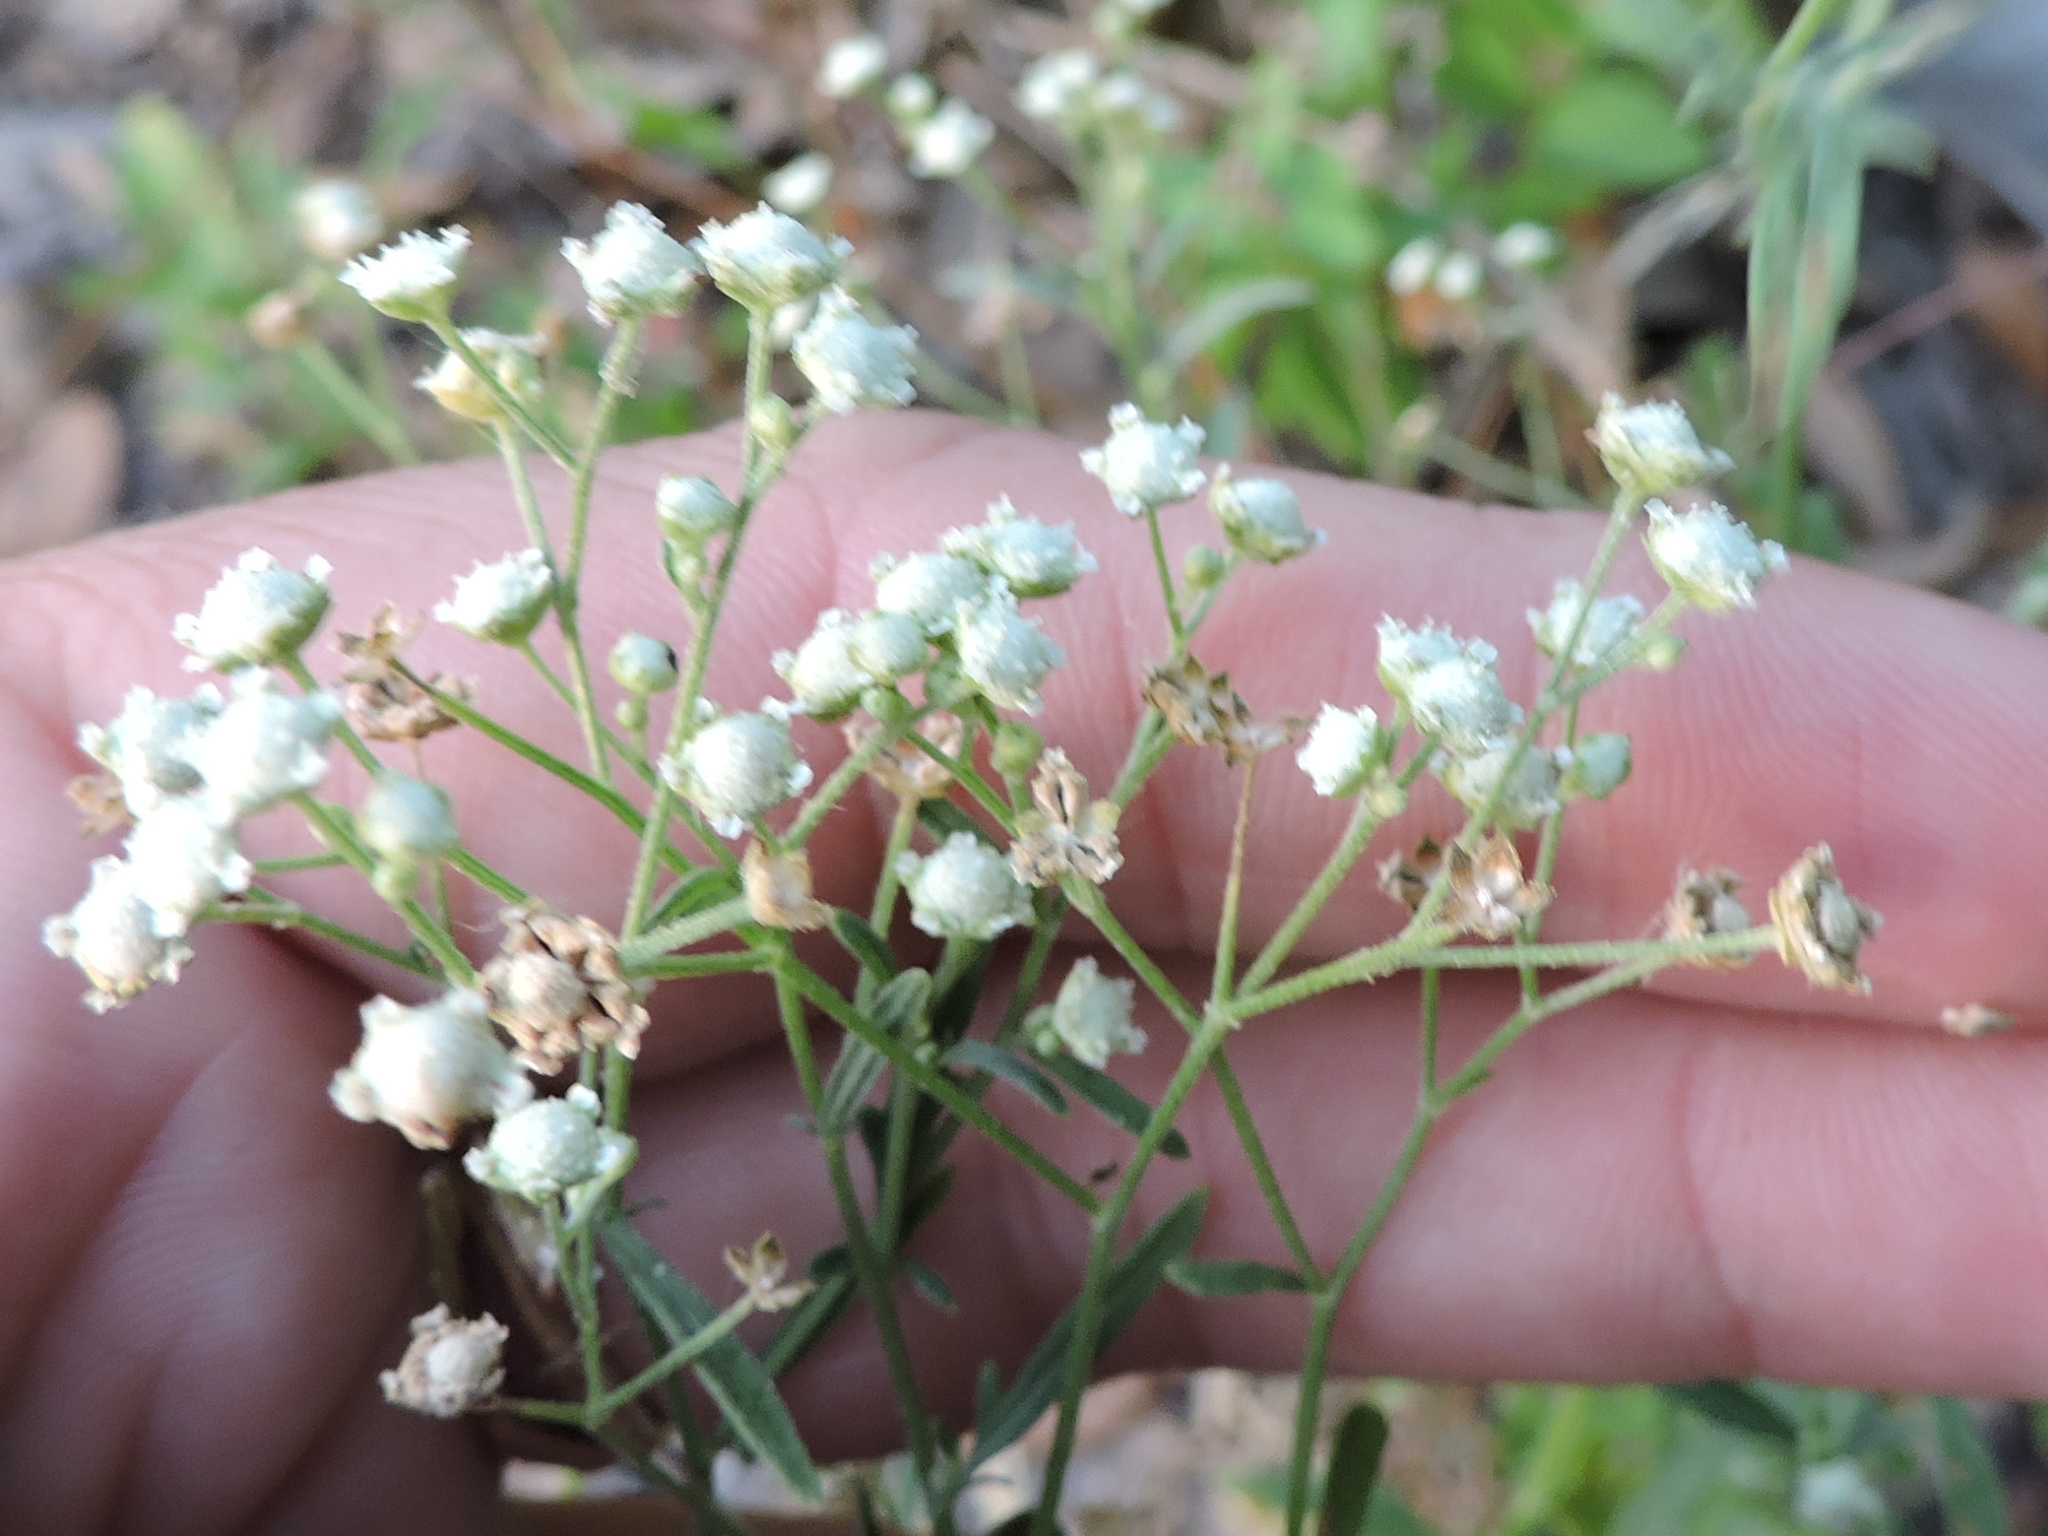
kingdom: Plantae
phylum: Tracheophyta
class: Magnoliopsida
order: Asterales
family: Asteraceae
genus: Parthenium
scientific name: Parthenium hysterophorus
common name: Santa maria feverfew
